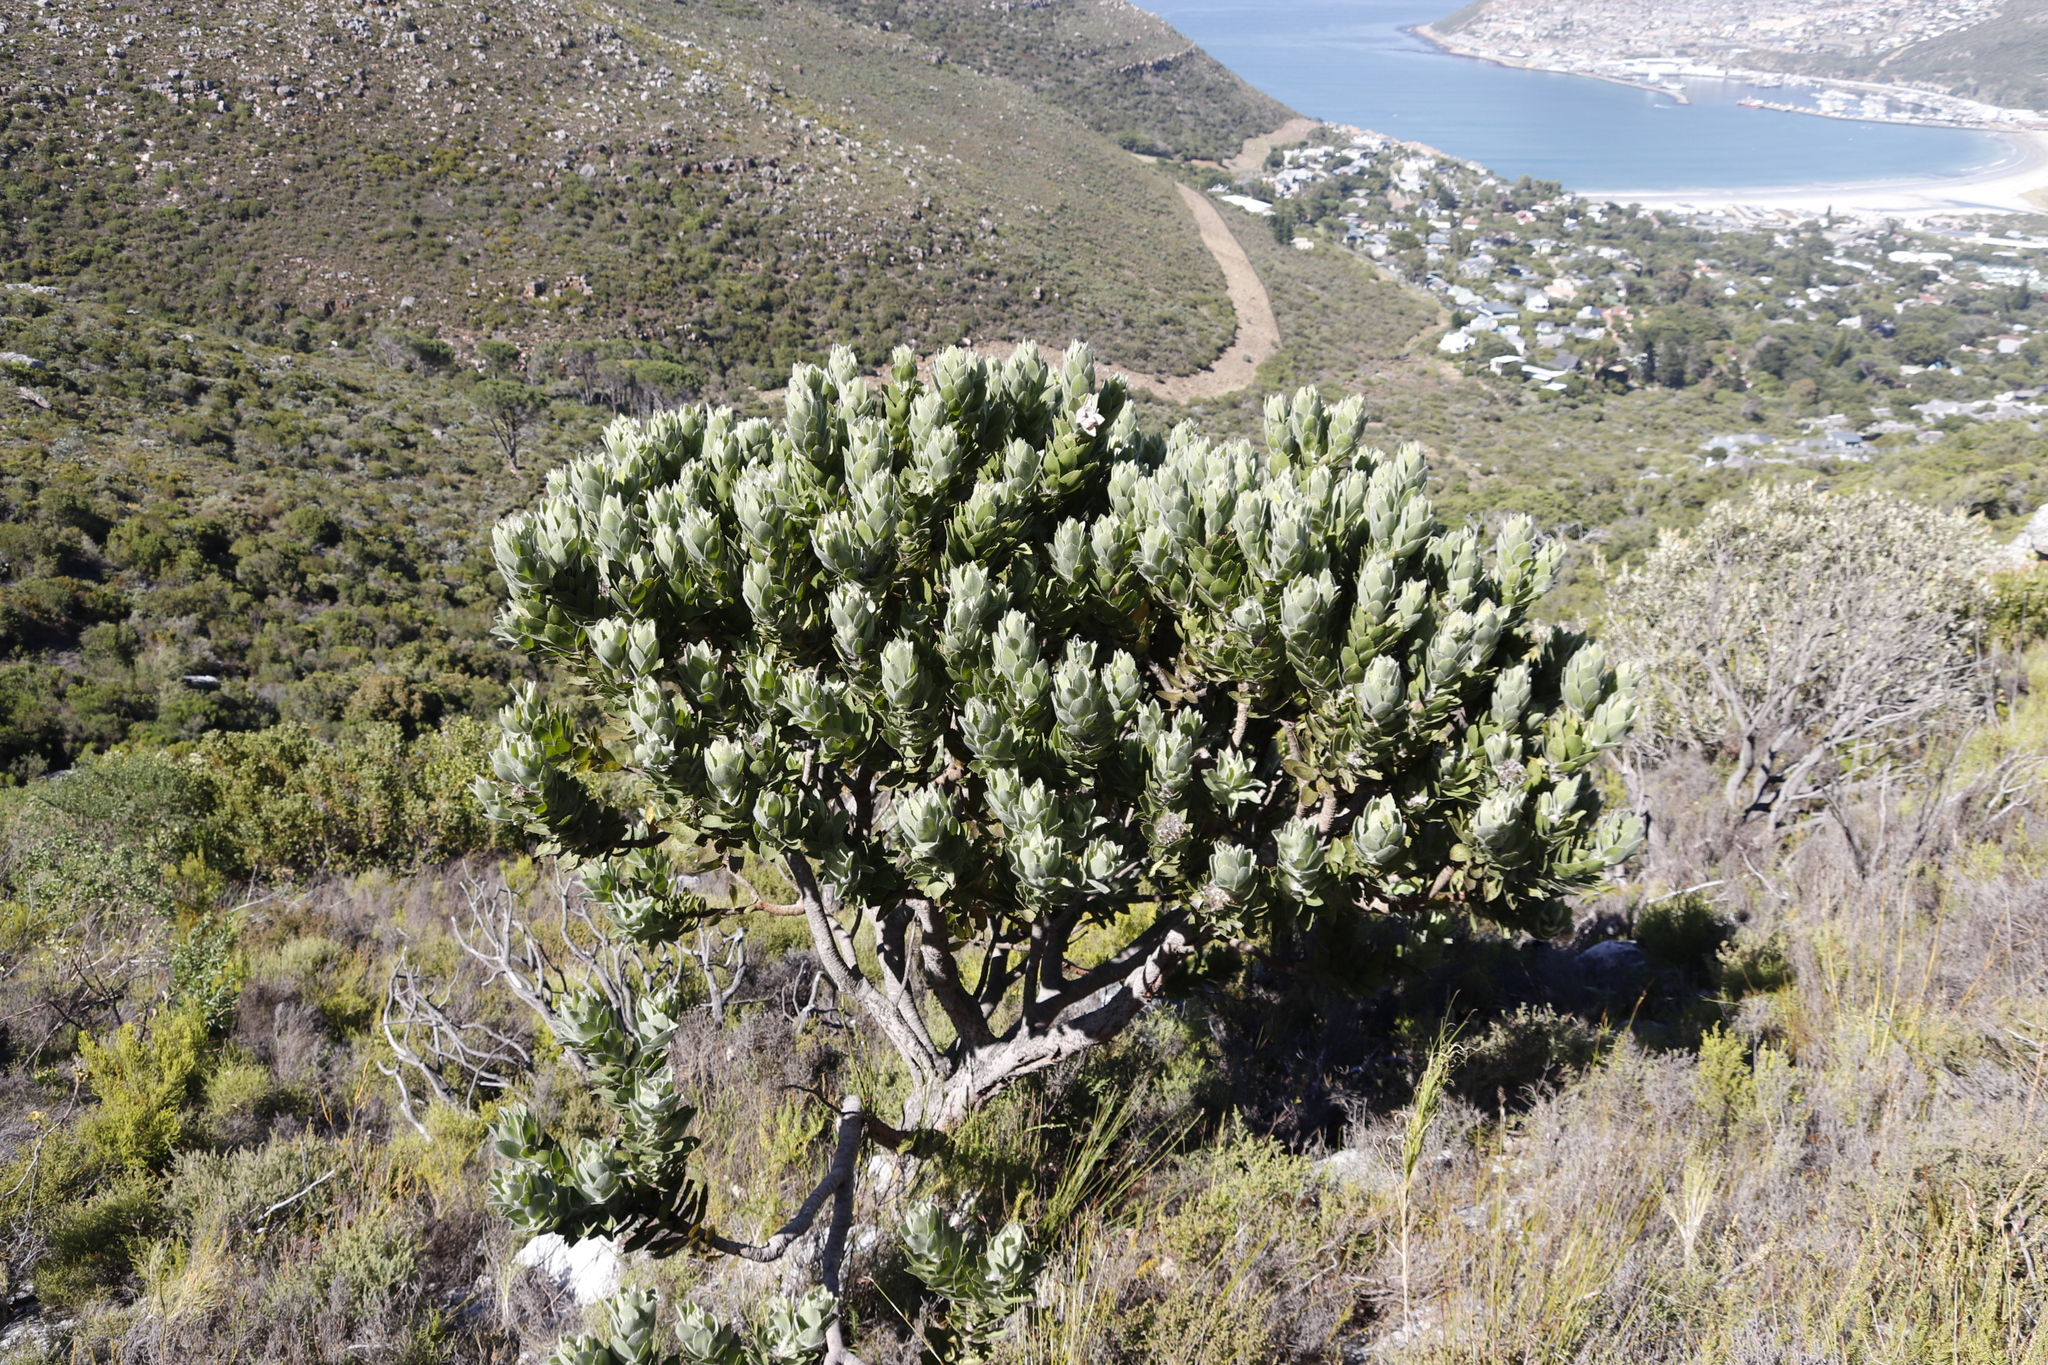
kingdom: Plantae
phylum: Tracheophyta
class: Magnoliopsida
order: Proteales
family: Proteaceae
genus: Leucospermum
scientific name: Leucospermum conocarpodendron
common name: Tree pincushion
